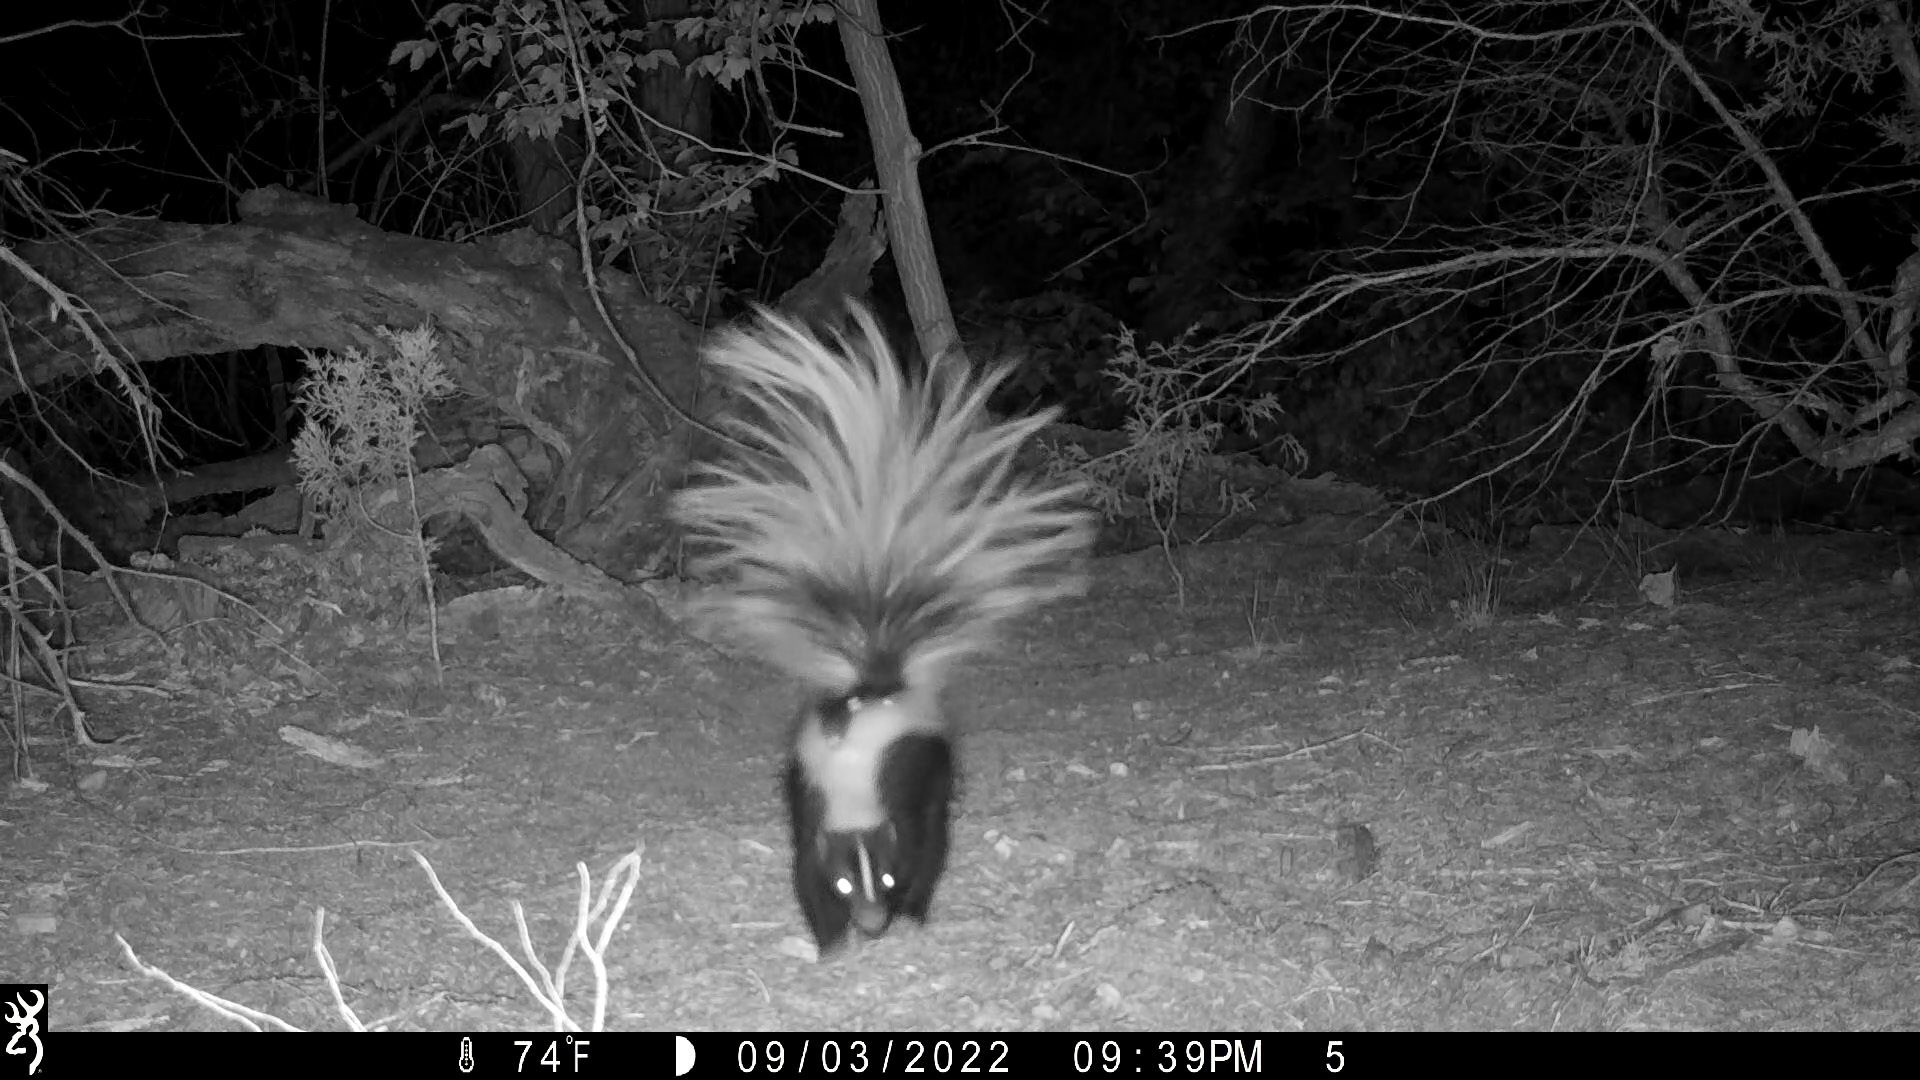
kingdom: Animalia
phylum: Chordata
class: Mammalia
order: Carnivora
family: Mephitidae
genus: Mephitis
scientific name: Mephitis mephitis
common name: Striped skunk
